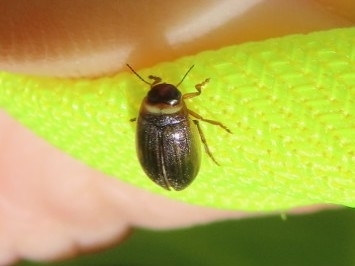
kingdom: Animalia
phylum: Arthropoda
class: Insecta
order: Coleoptera
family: Dytiscidae
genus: Hygrotus
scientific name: Hygrotus impressopunctatus
